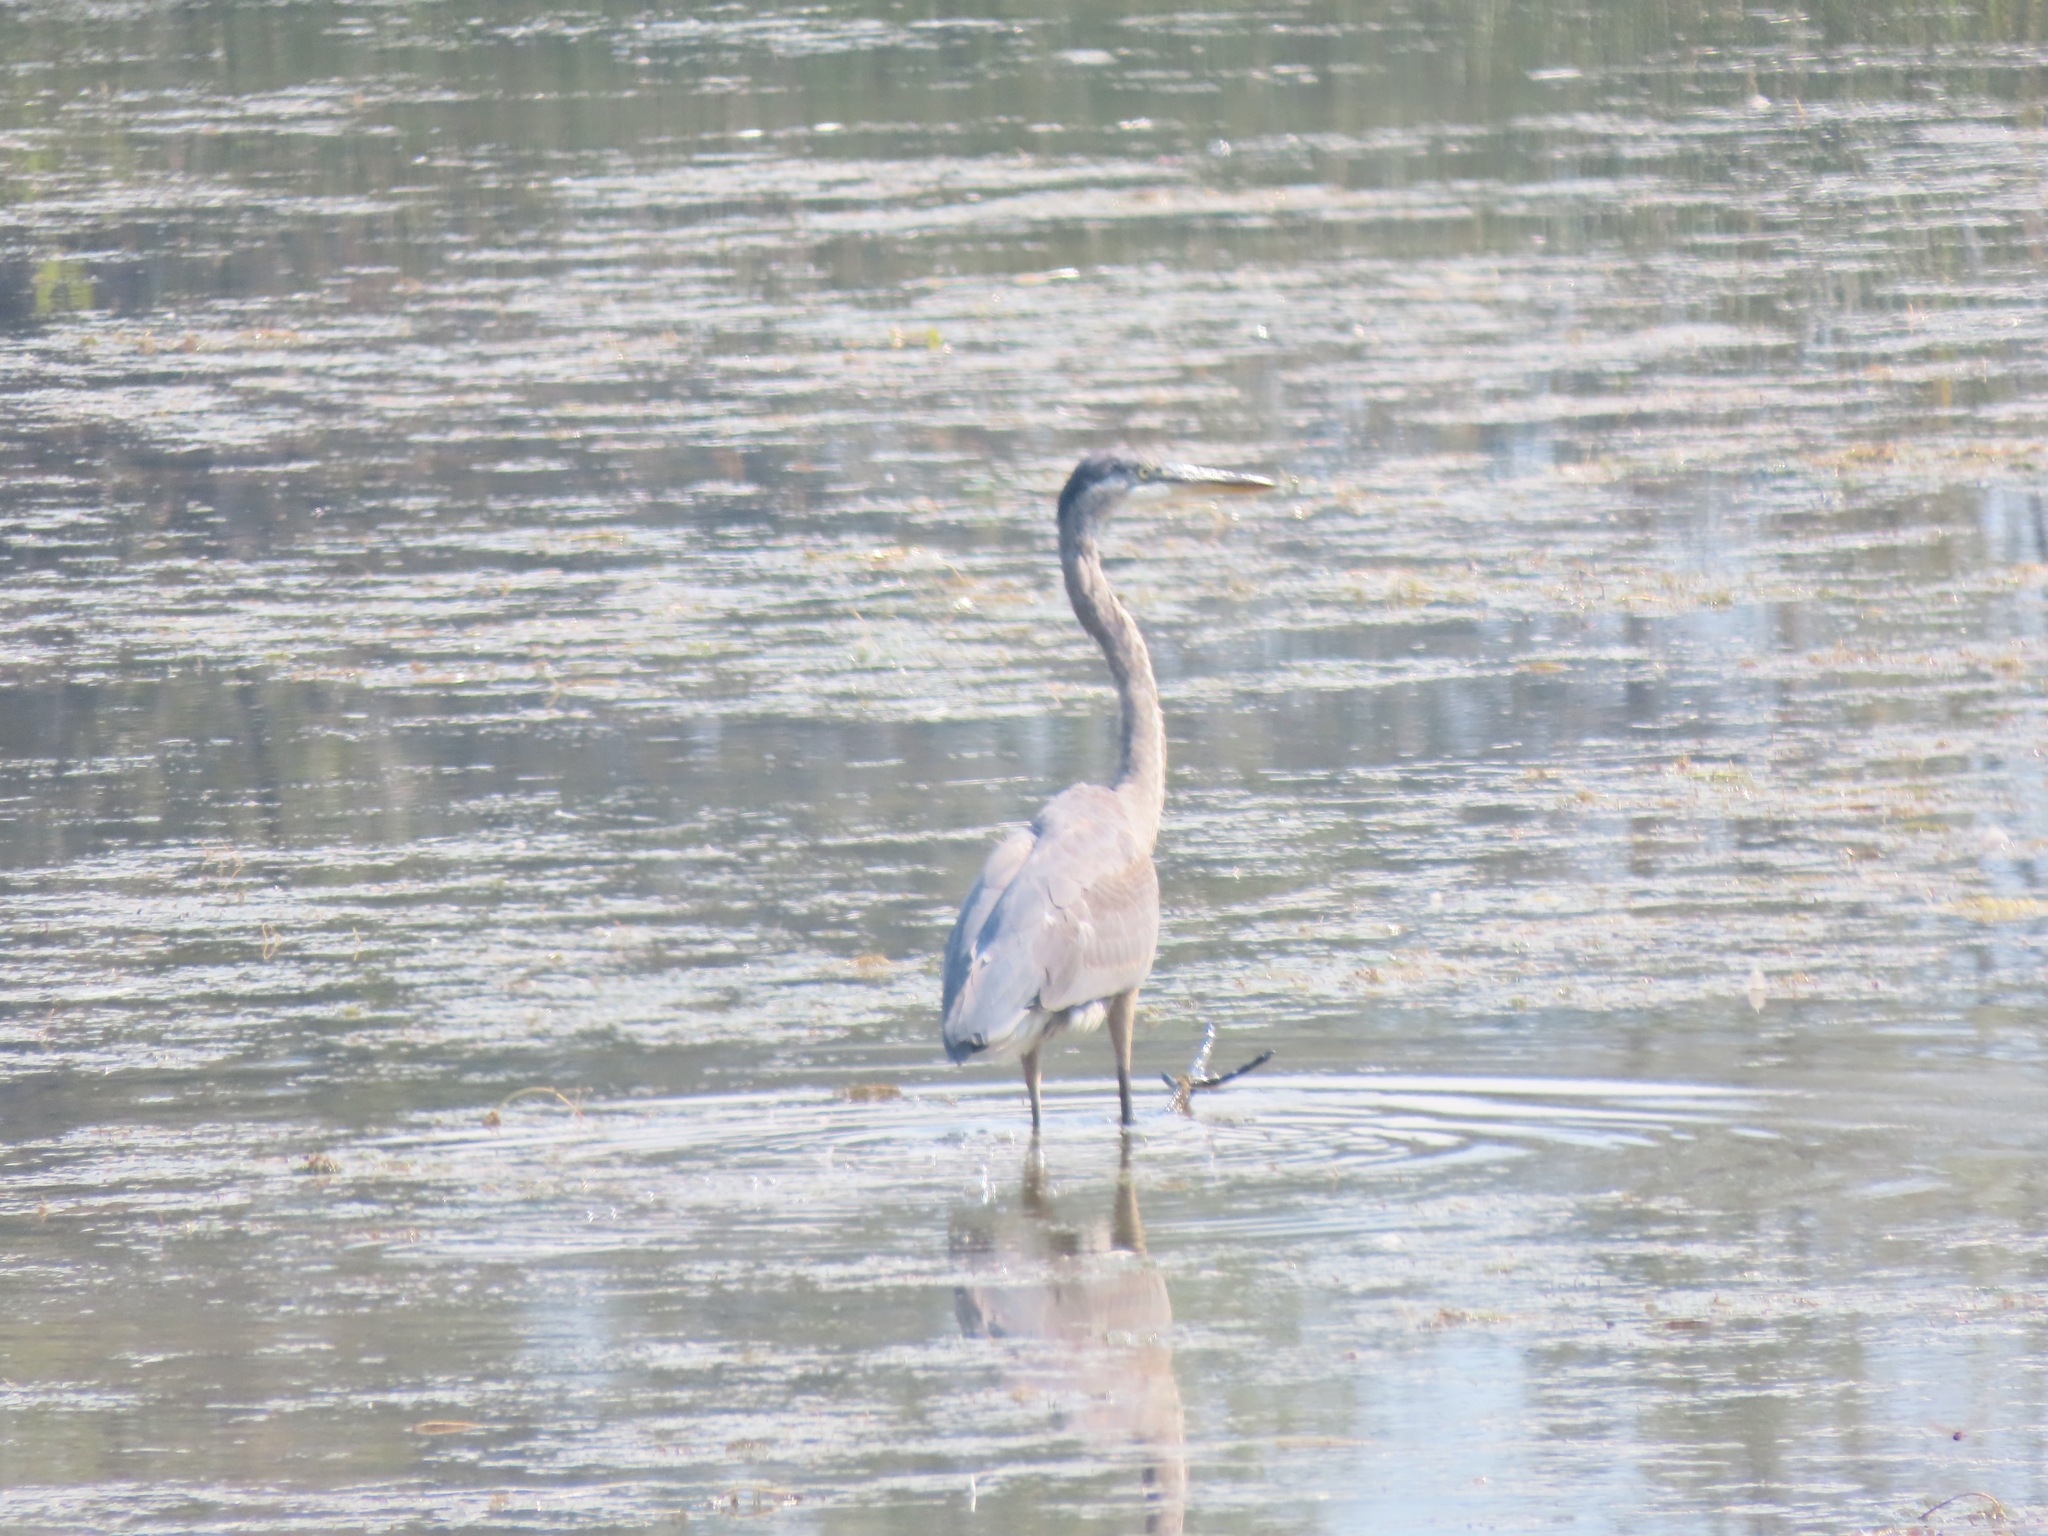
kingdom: Animalia
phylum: Chordata
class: Aves
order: Pelecaniformes
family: Ardeidae
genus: Ardea
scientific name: Ardea herodias
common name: Great blue heron
